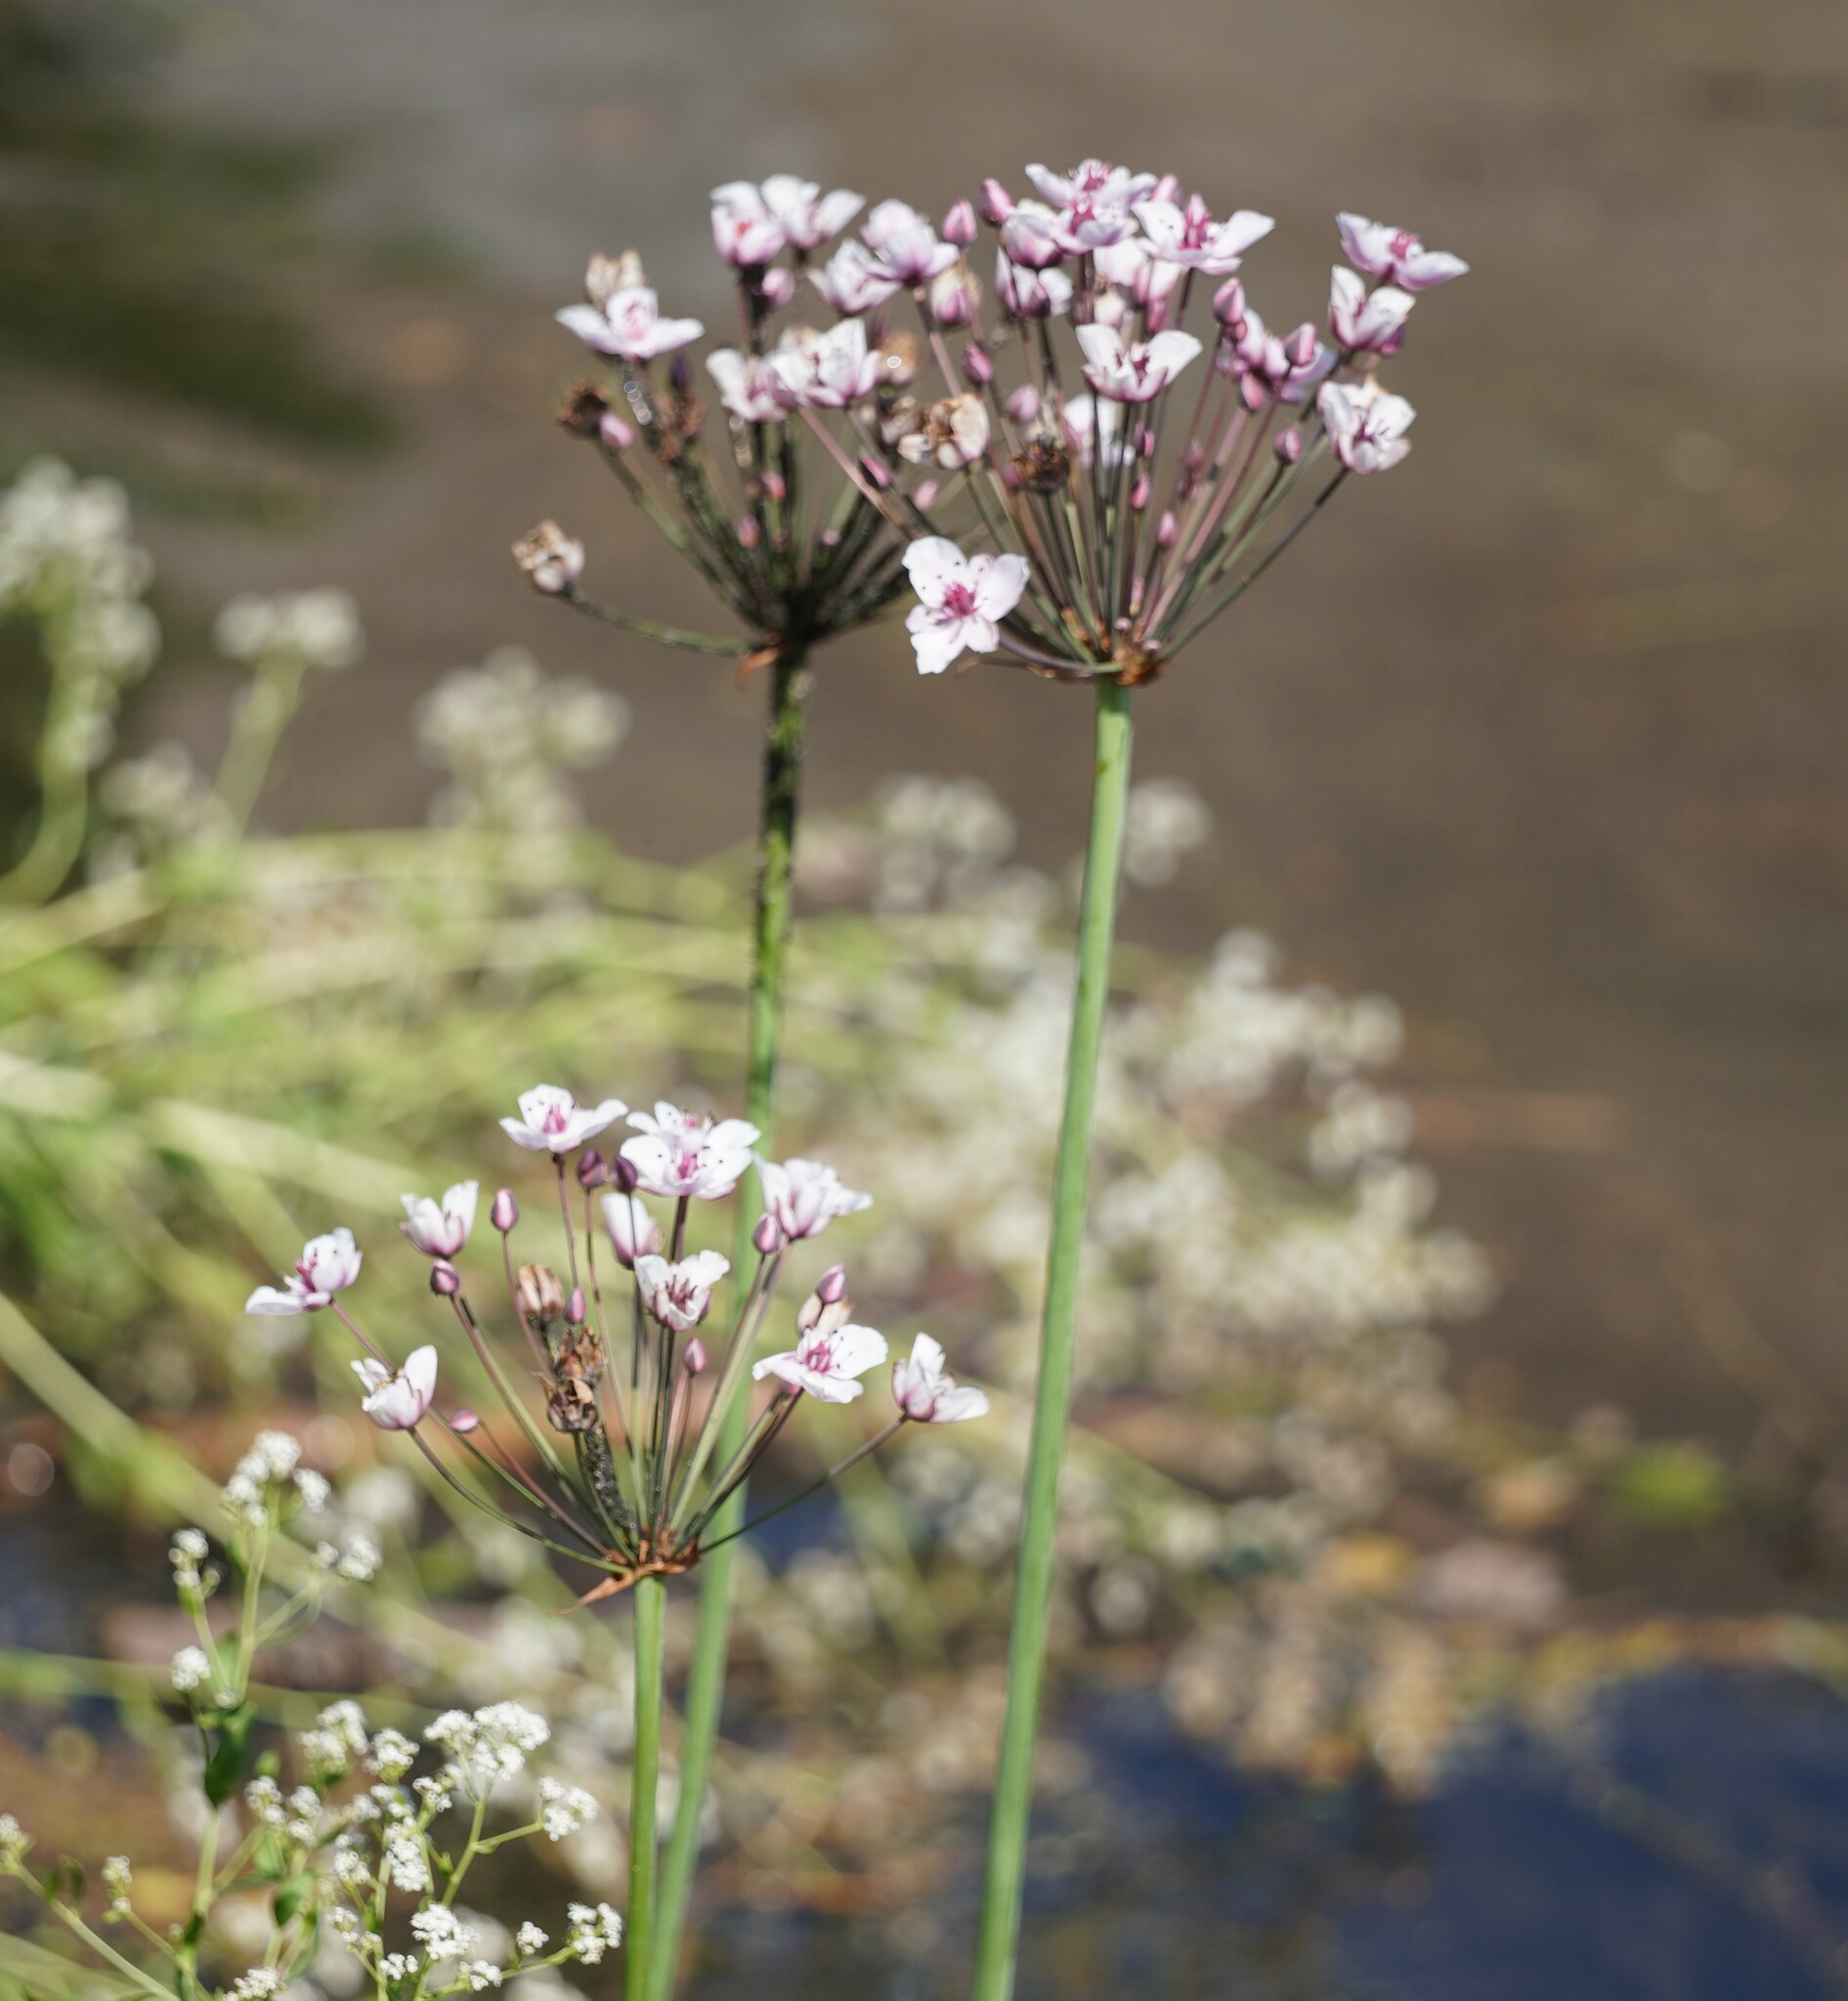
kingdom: Plantae
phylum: Tracheophyta
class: Liliopsida
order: Alismatales
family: Butomaceae
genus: Butomus
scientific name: Butomus umbellatus
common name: Flowering-rush
